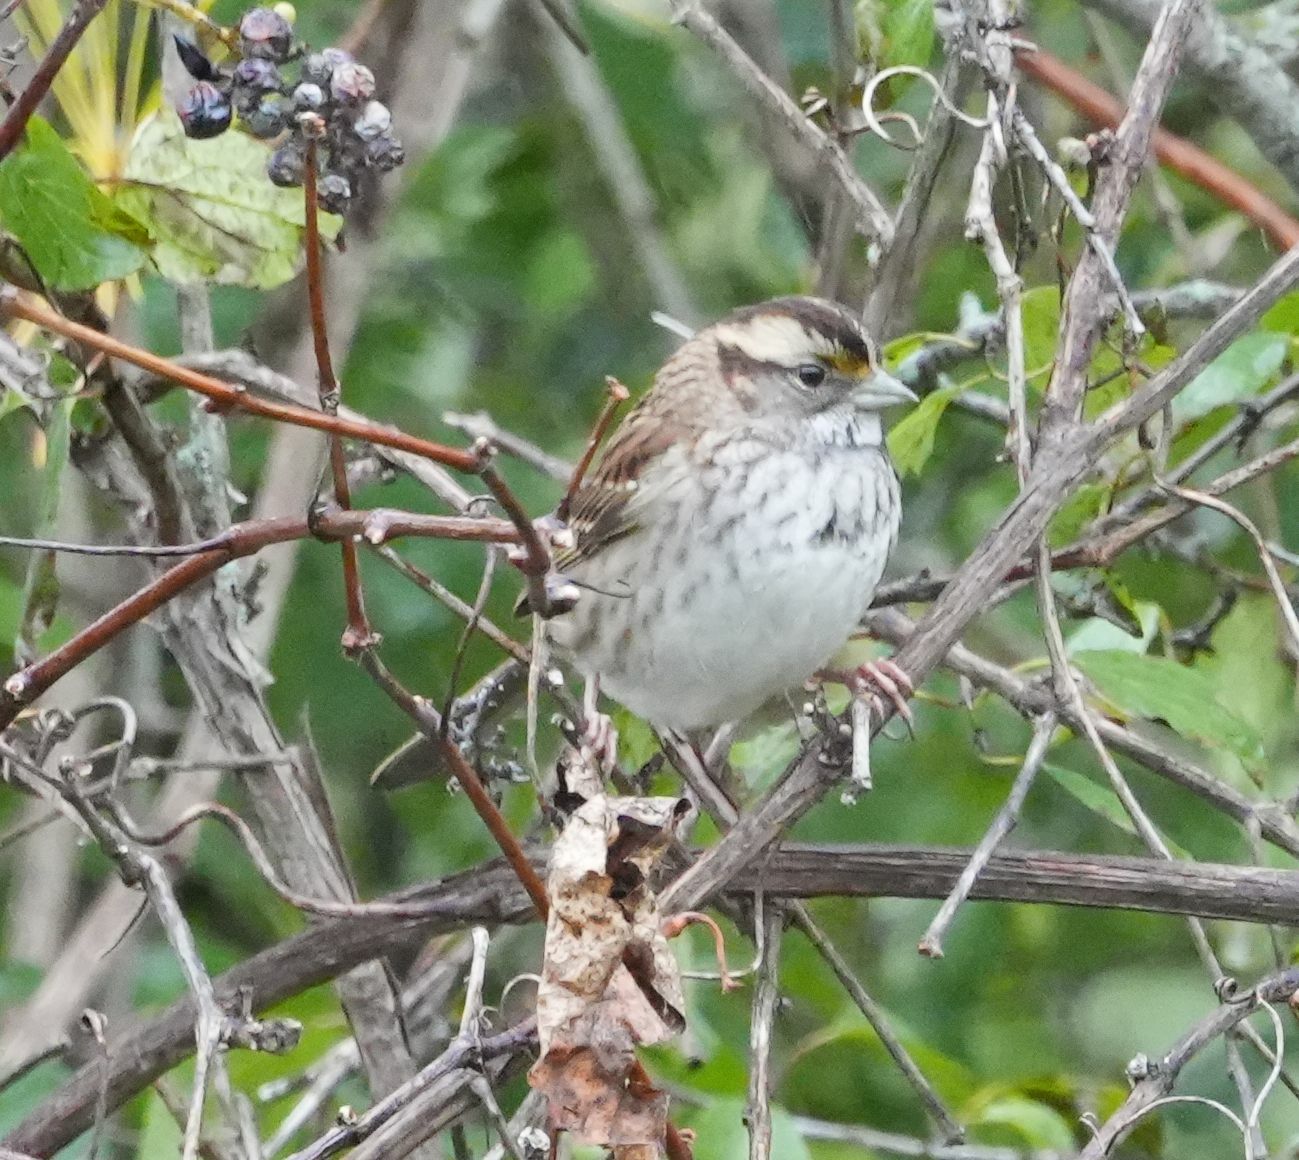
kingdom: Animalia
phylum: Chordata
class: Aves
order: Passeriformes
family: Passerellidae
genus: Zonotrichia
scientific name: Zonotrichia albicollis
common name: White-throated sparrow
